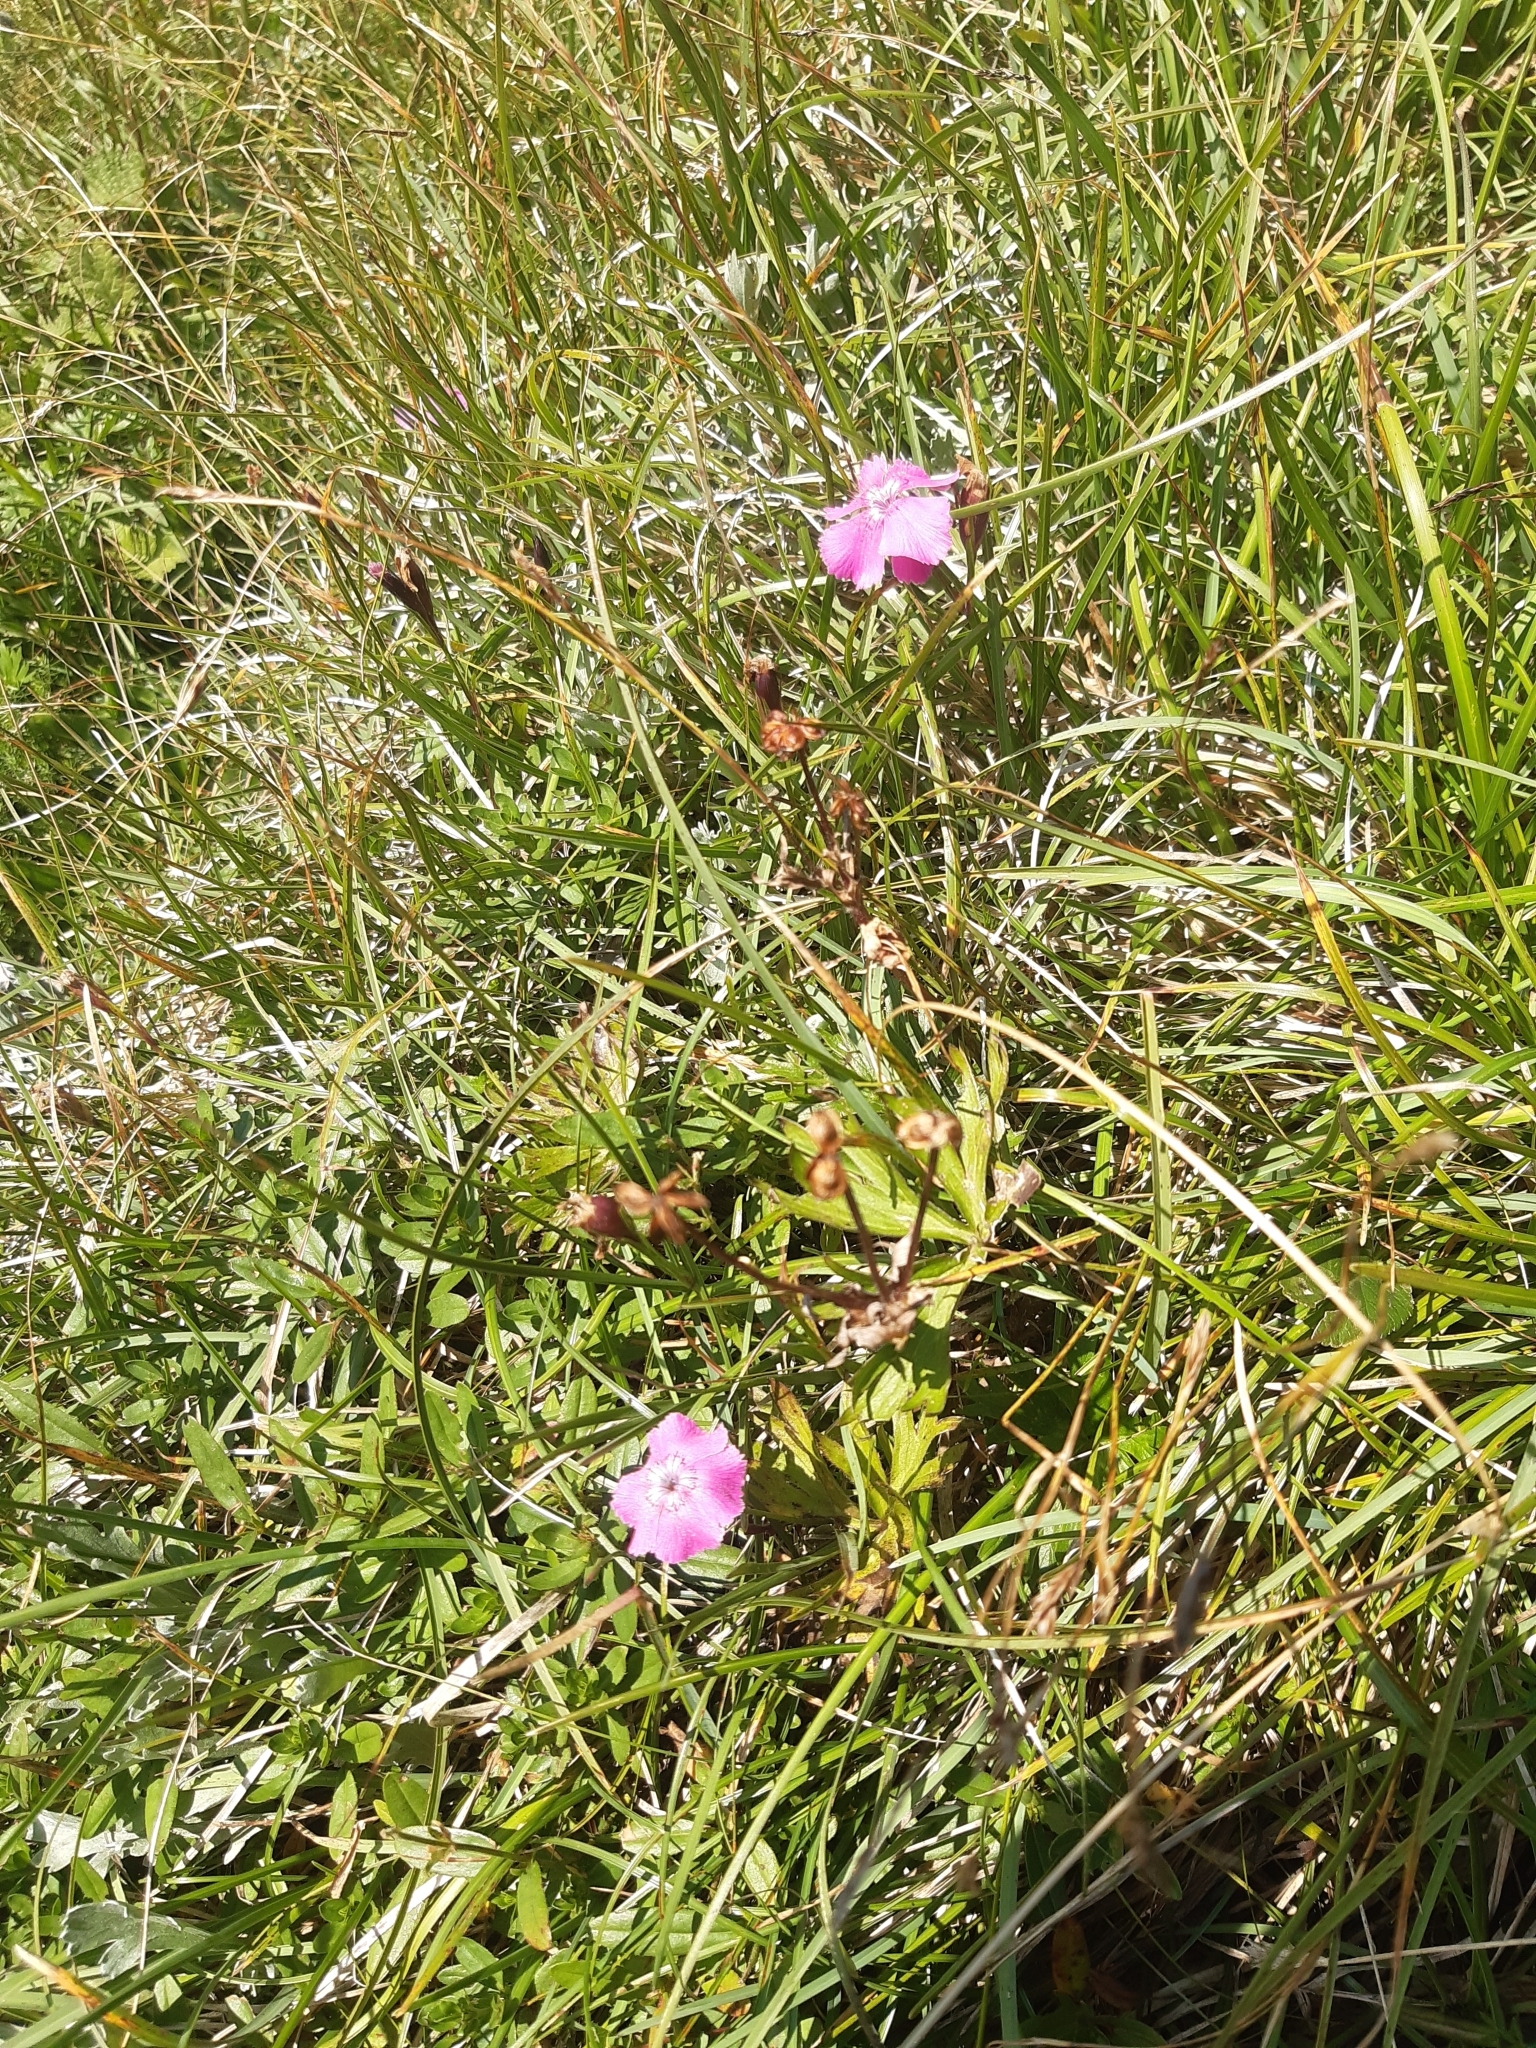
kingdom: Plantae
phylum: Tracheophyta
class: Magnoliopsida
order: Caryophyllales
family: Caryophyllaceae
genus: Dianthus
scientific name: Dianthus alpinus
